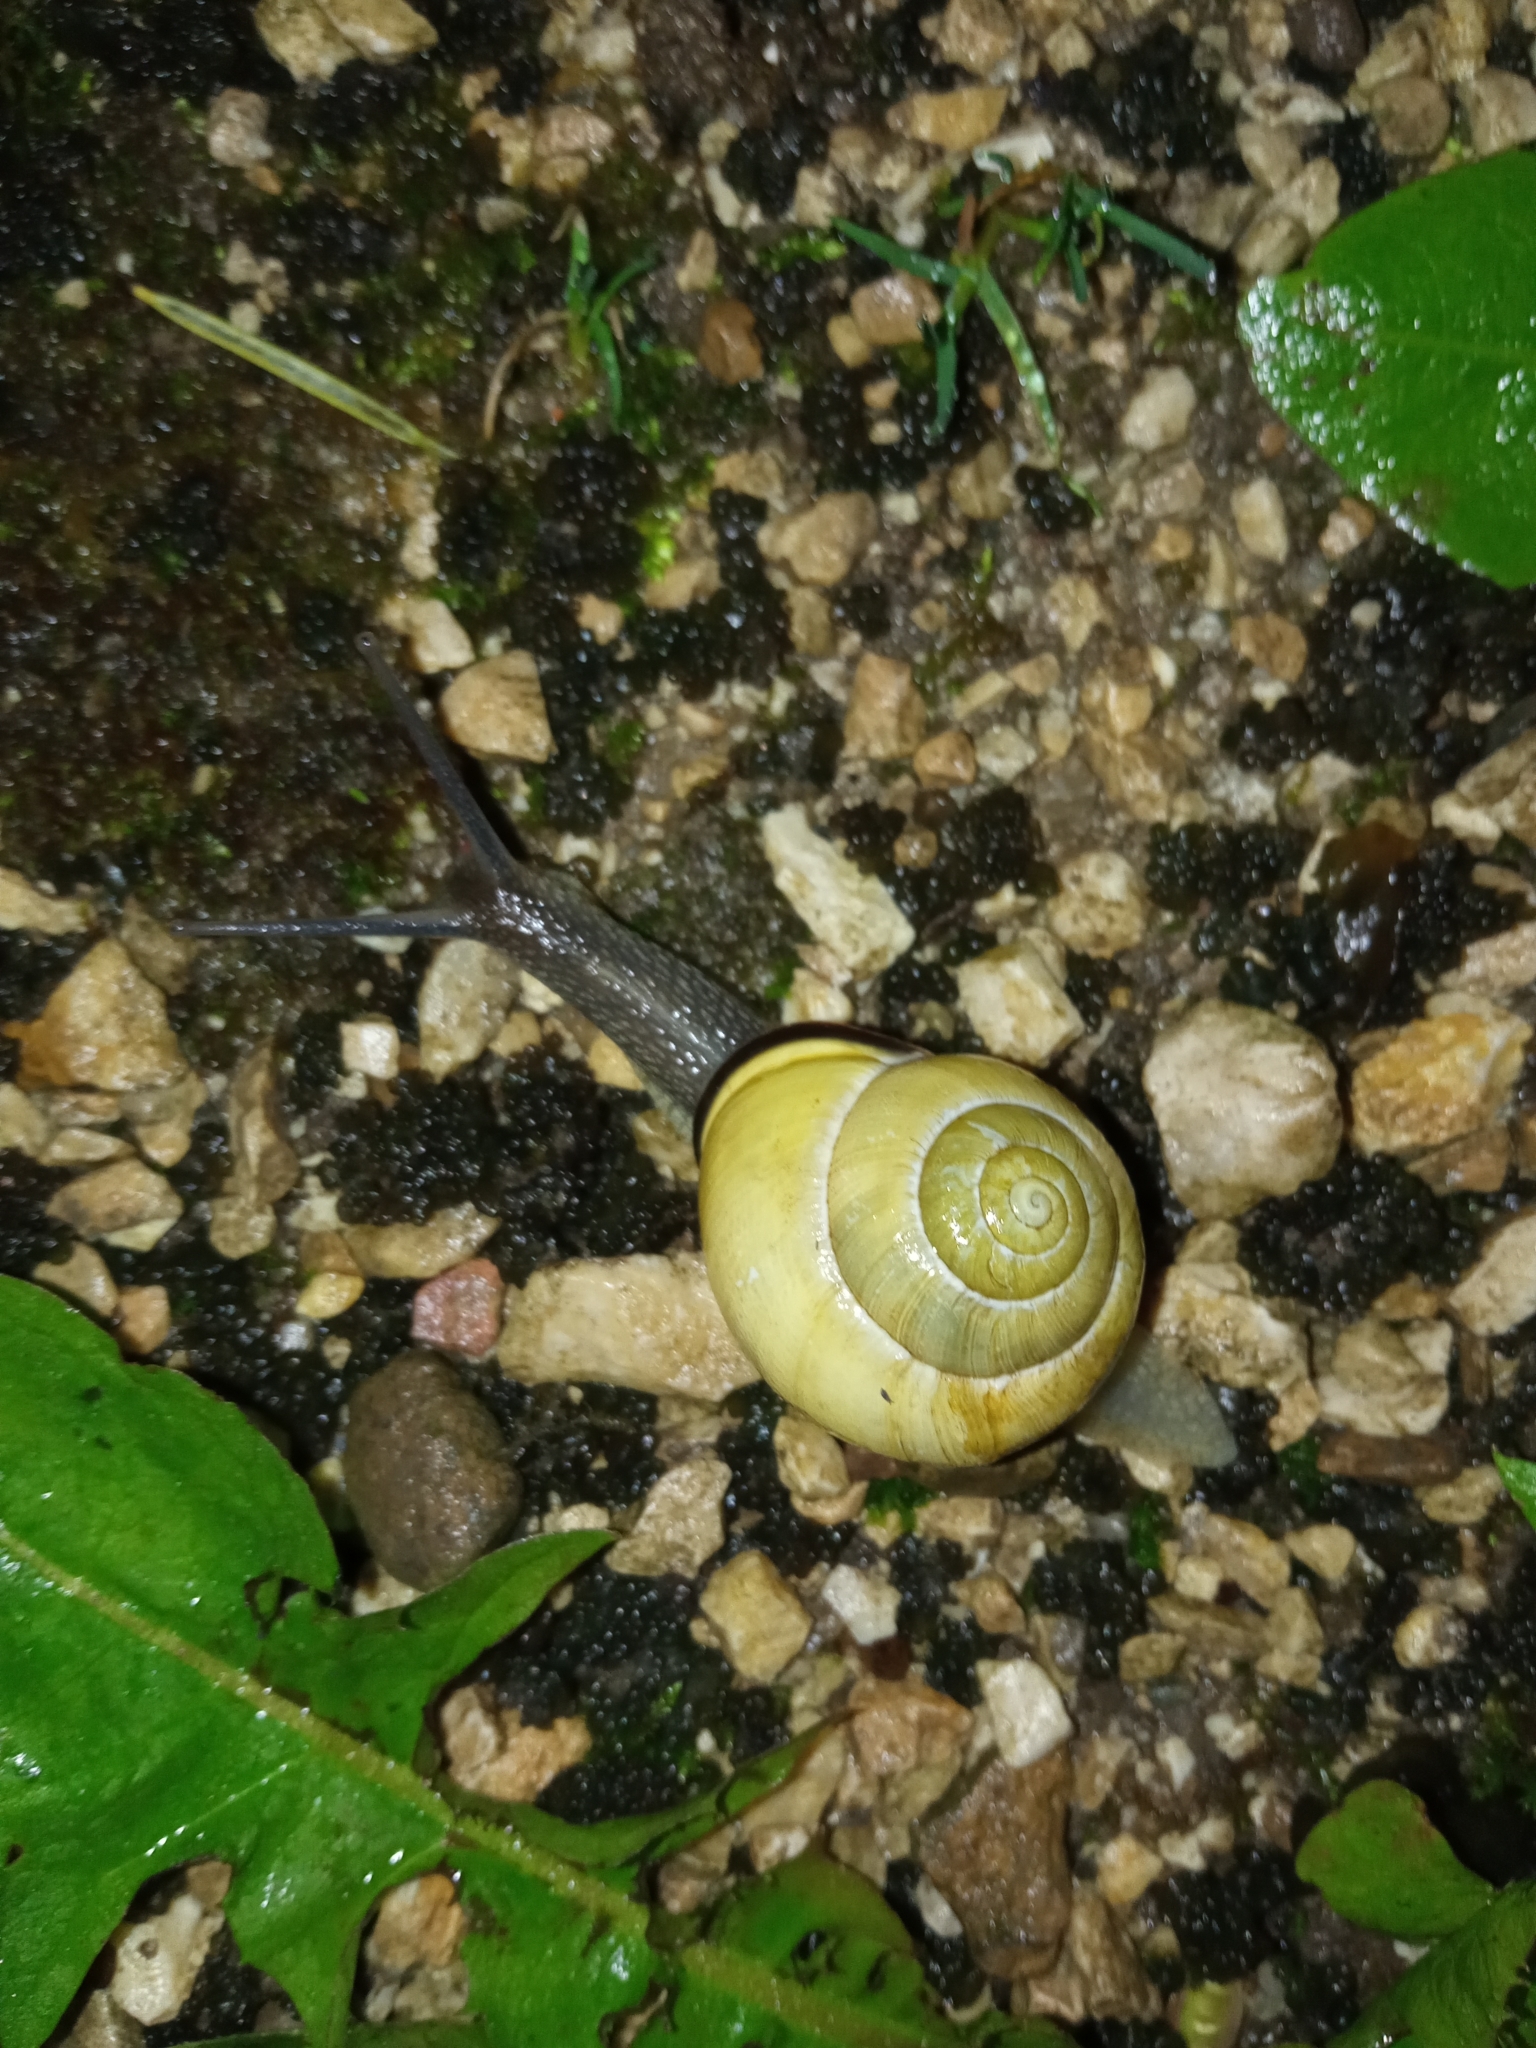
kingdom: Animalia
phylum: Mollusca
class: Gastropoda
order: Stylommatophora
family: Helicidae
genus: Cepaea
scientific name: Cepaea nemoralis
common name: Grovesnail
